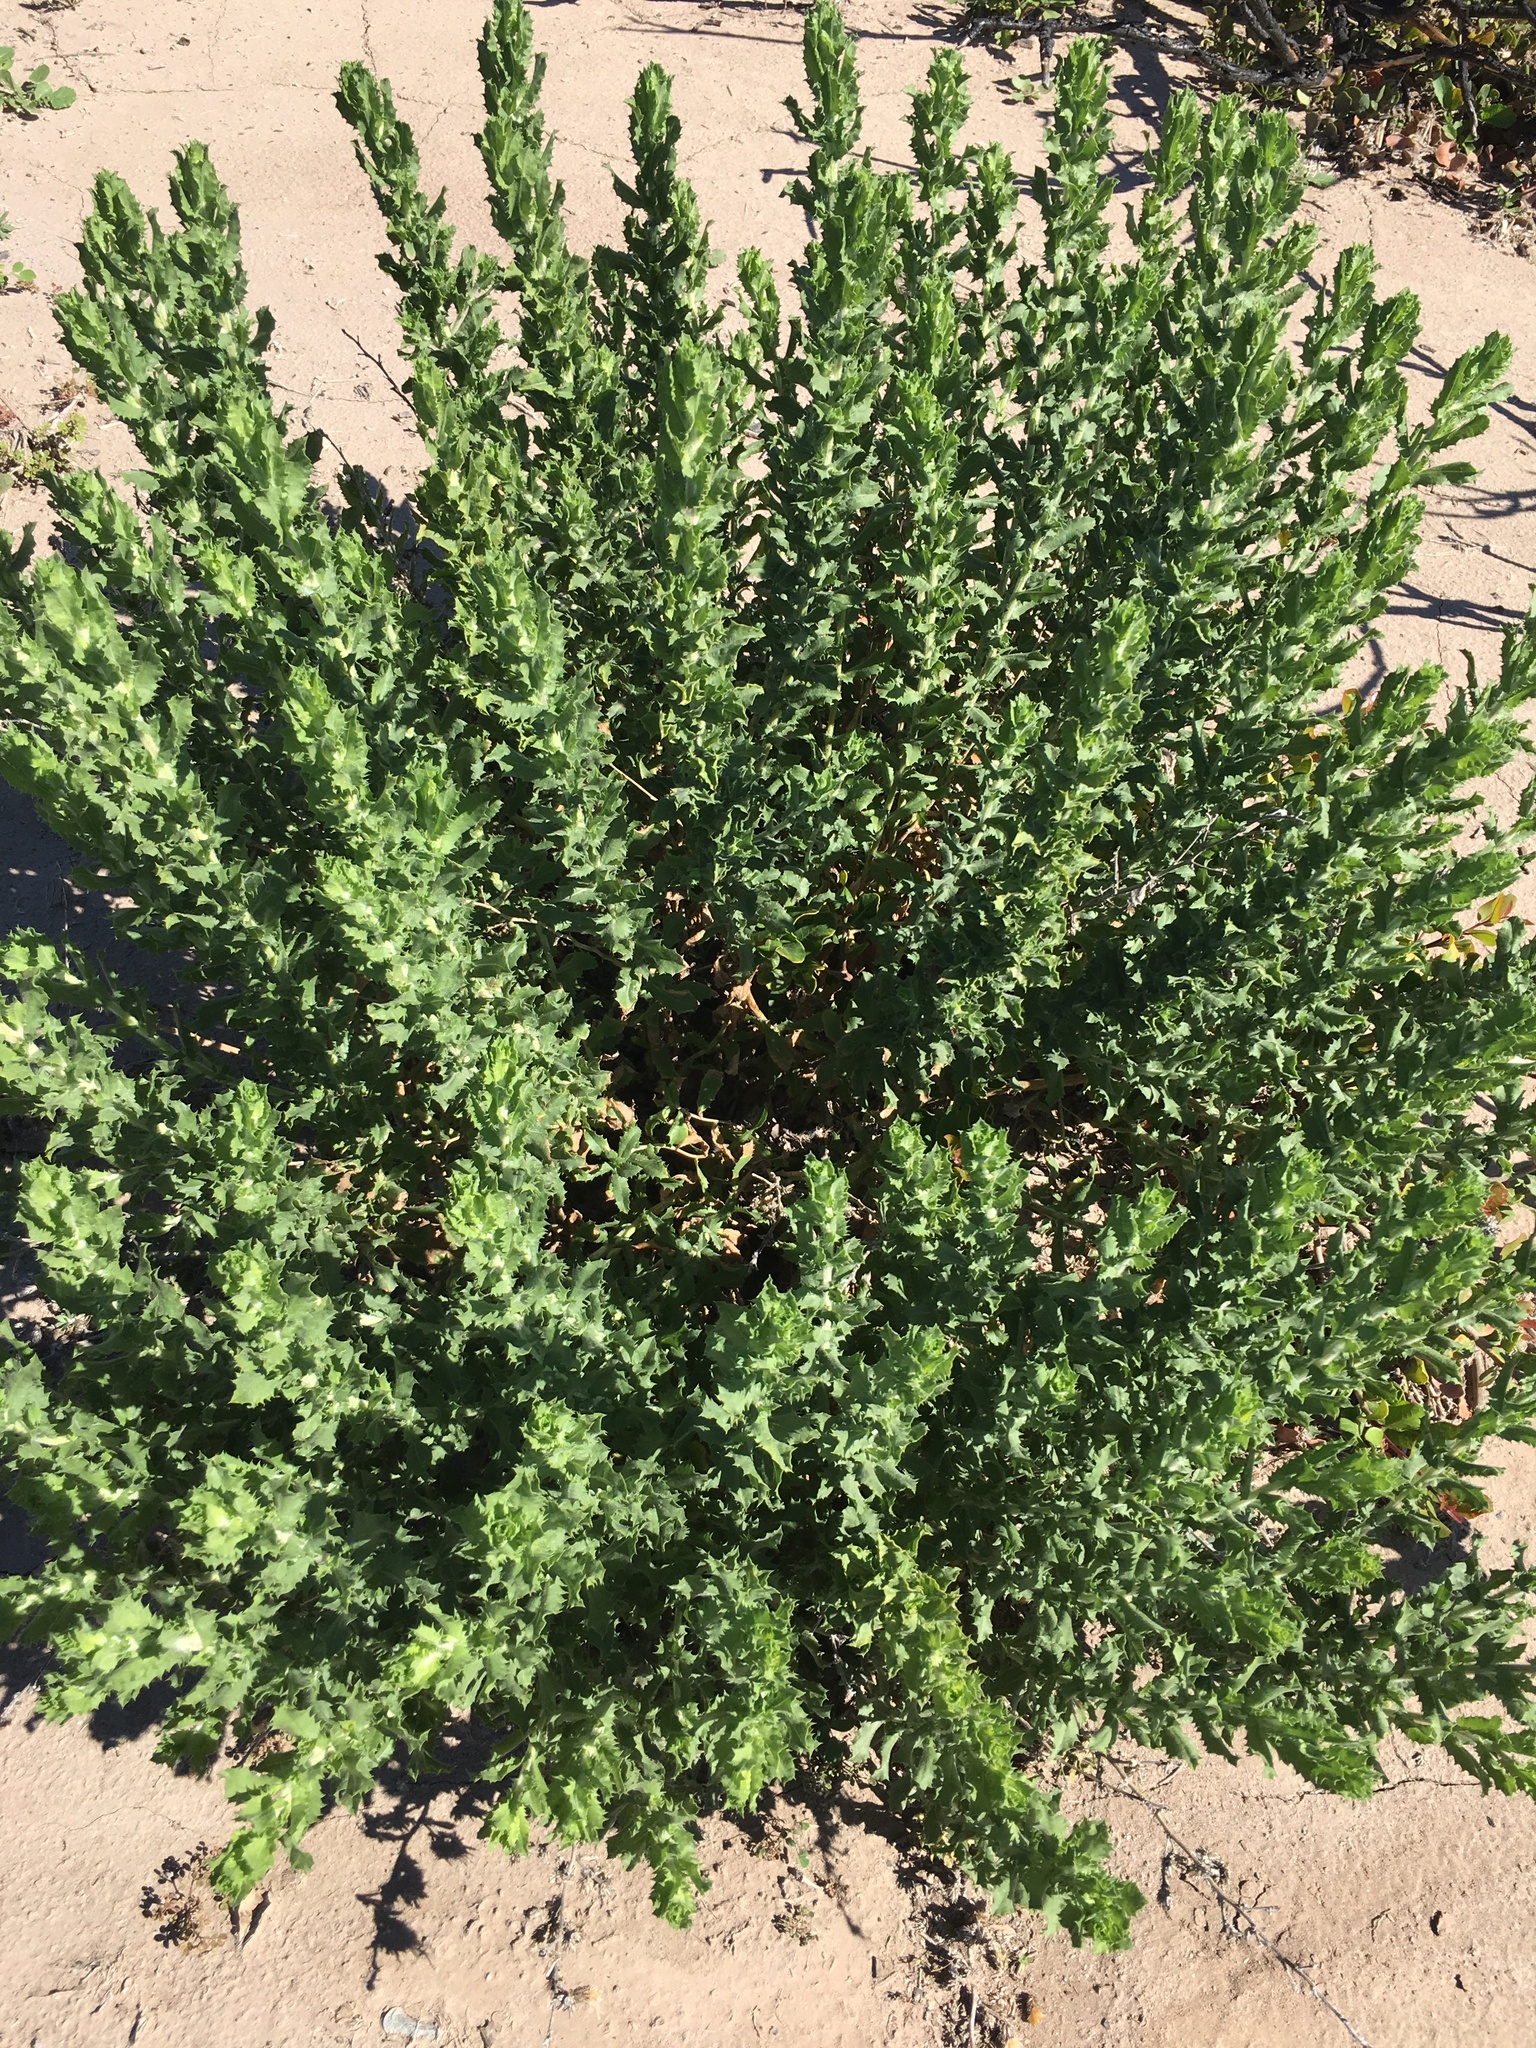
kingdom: Plantae
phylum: Tracheophyta
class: Magnoliopsida
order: Asterales
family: Asteraceae
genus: Hazardia
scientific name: Hazardia squarrosa
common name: Saw-tooth goldenbush
